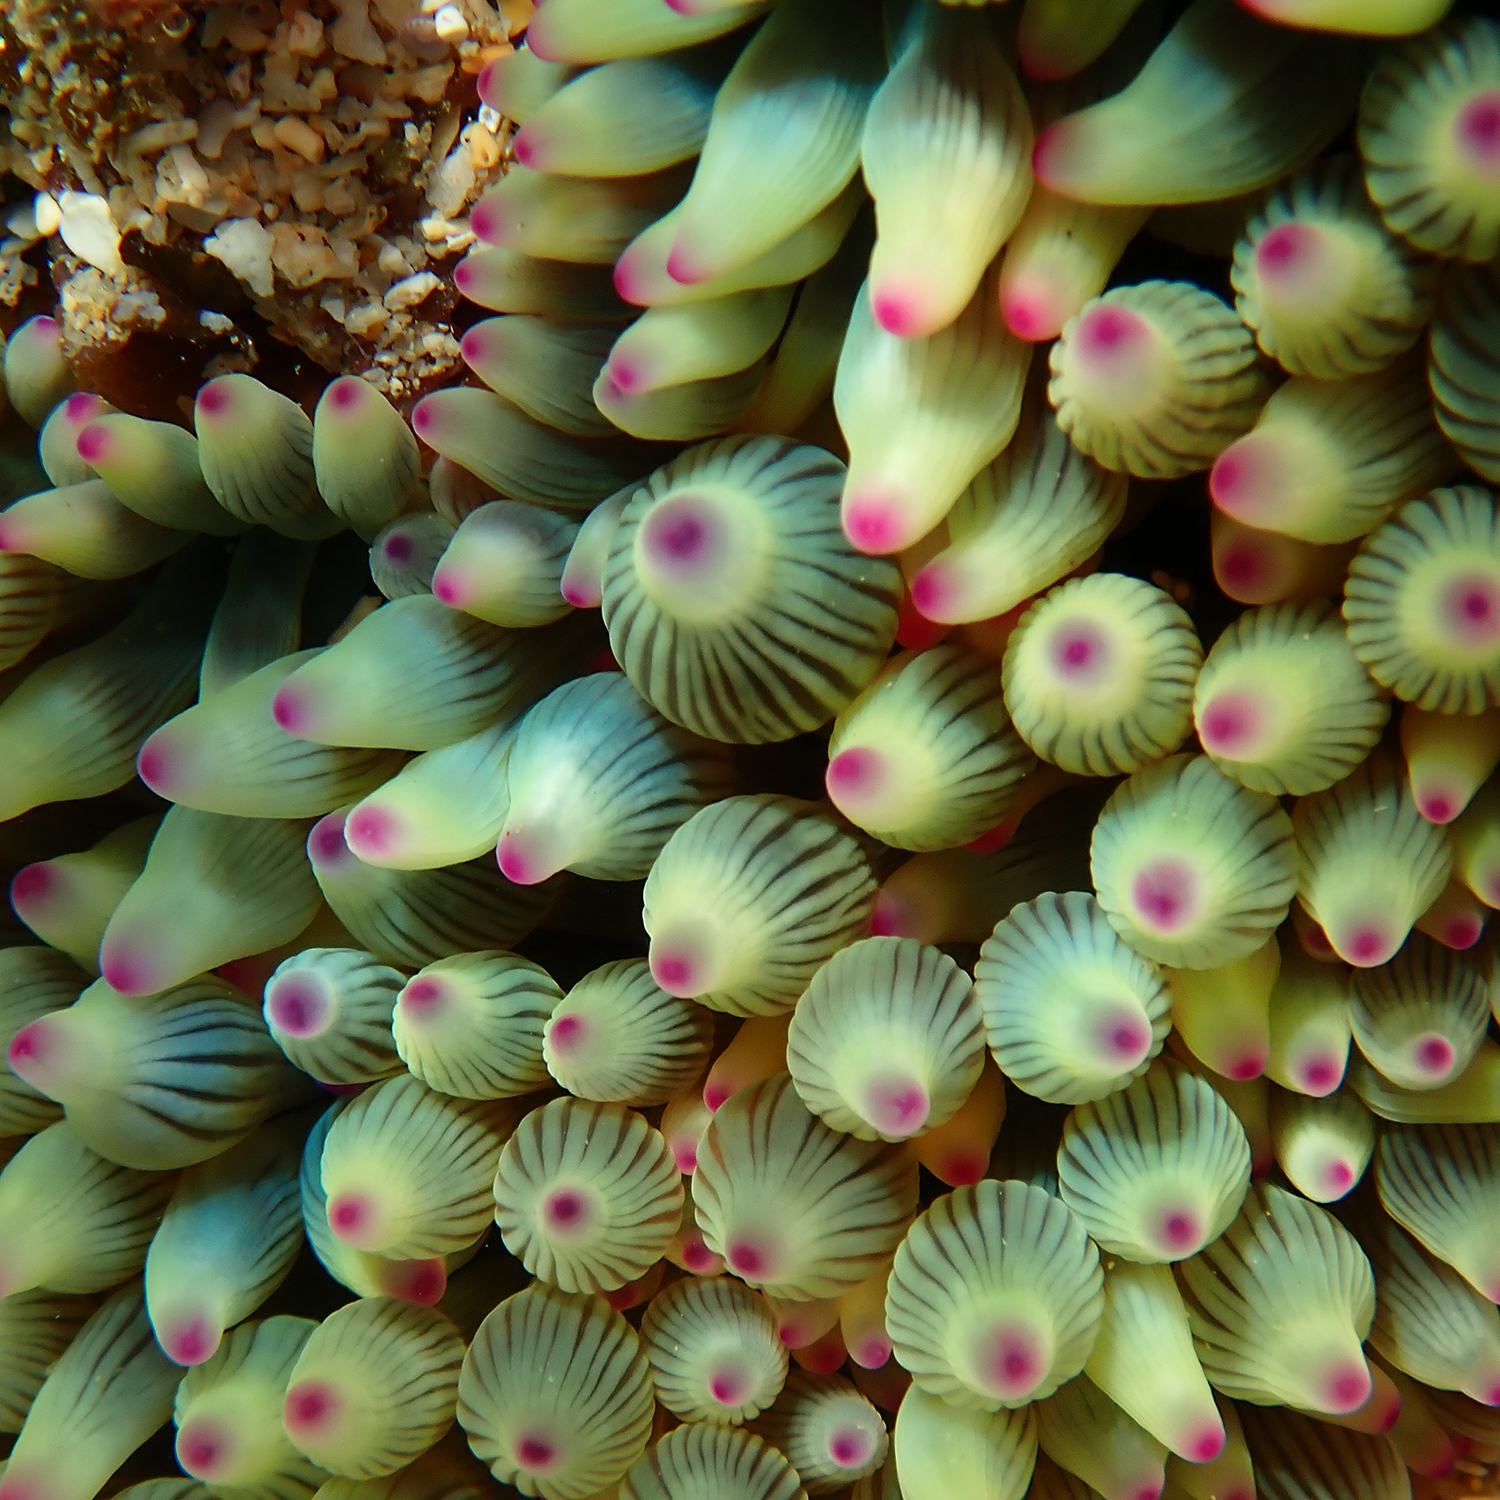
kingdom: Animalia
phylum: Cnidaria
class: Anthozoa
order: Actiniaria
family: Actiniidae
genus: Entacmaea
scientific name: Entacmaea quadricolor
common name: Bulb tentacle sea anemone
